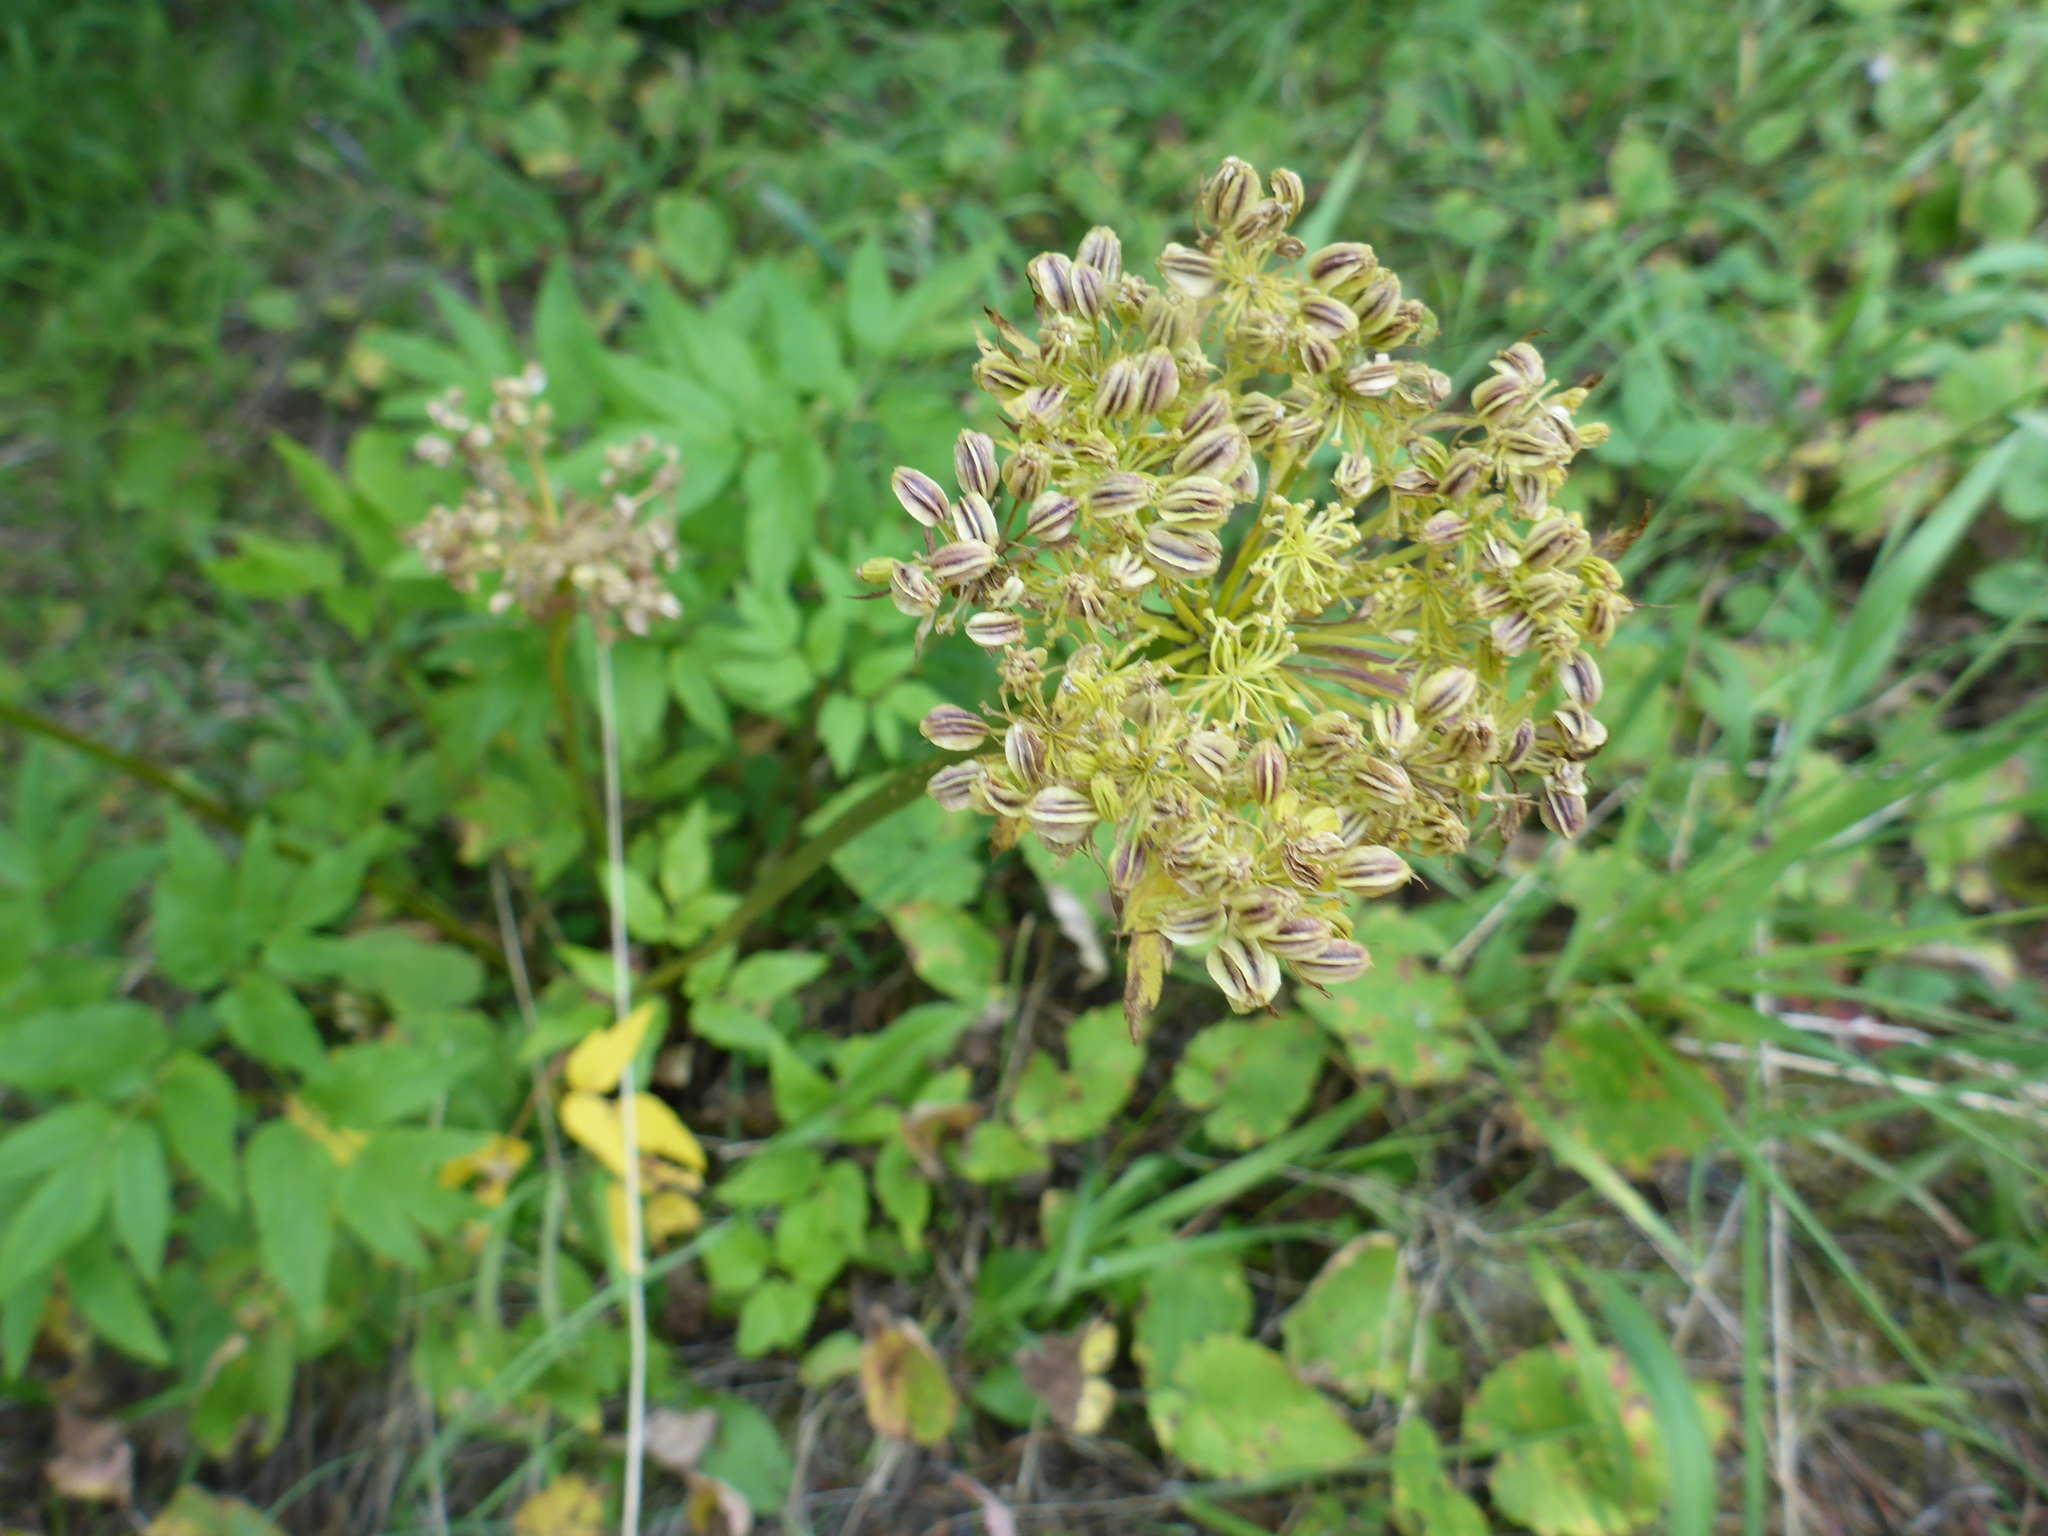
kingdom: Plantae
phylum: Tracheophyta
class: Magnoliopsida
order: Apiales
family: Apiaceae
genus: Angelica
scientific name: Angelica dawsonii
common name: Dawson's angelica
